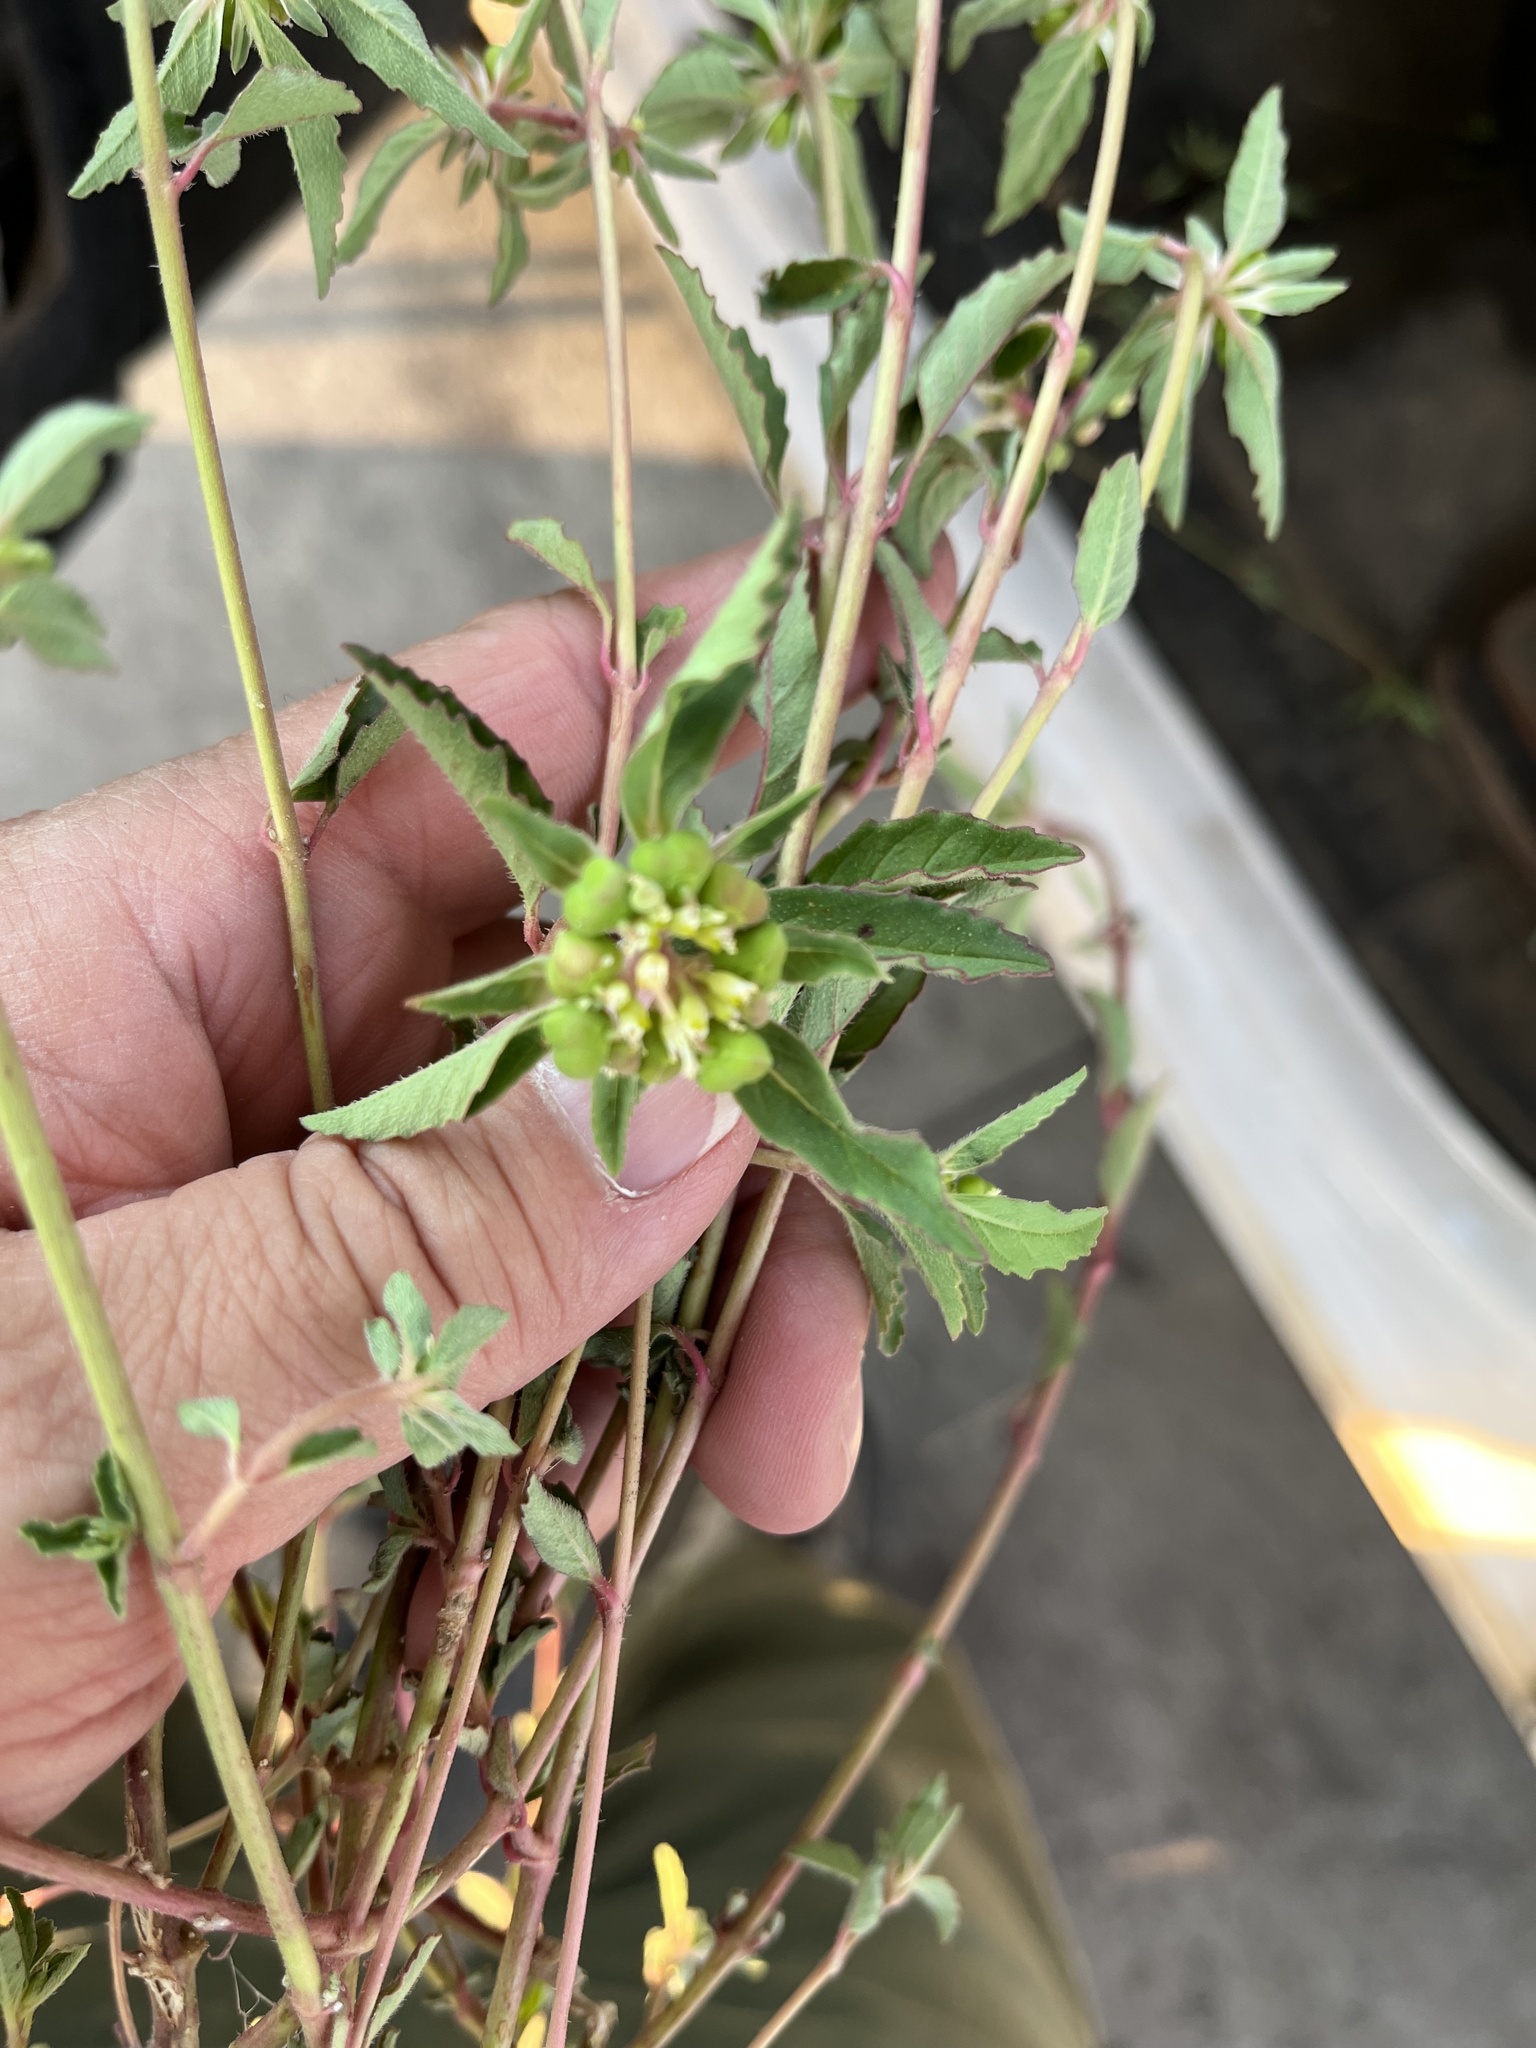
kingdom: Plantae
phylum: Tracheophyta
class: Magnoliopsida
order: Malpighiales
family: Euphorbiaceae
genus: Euphorbia
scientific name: Euphorbia davidii
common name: David's spurge
